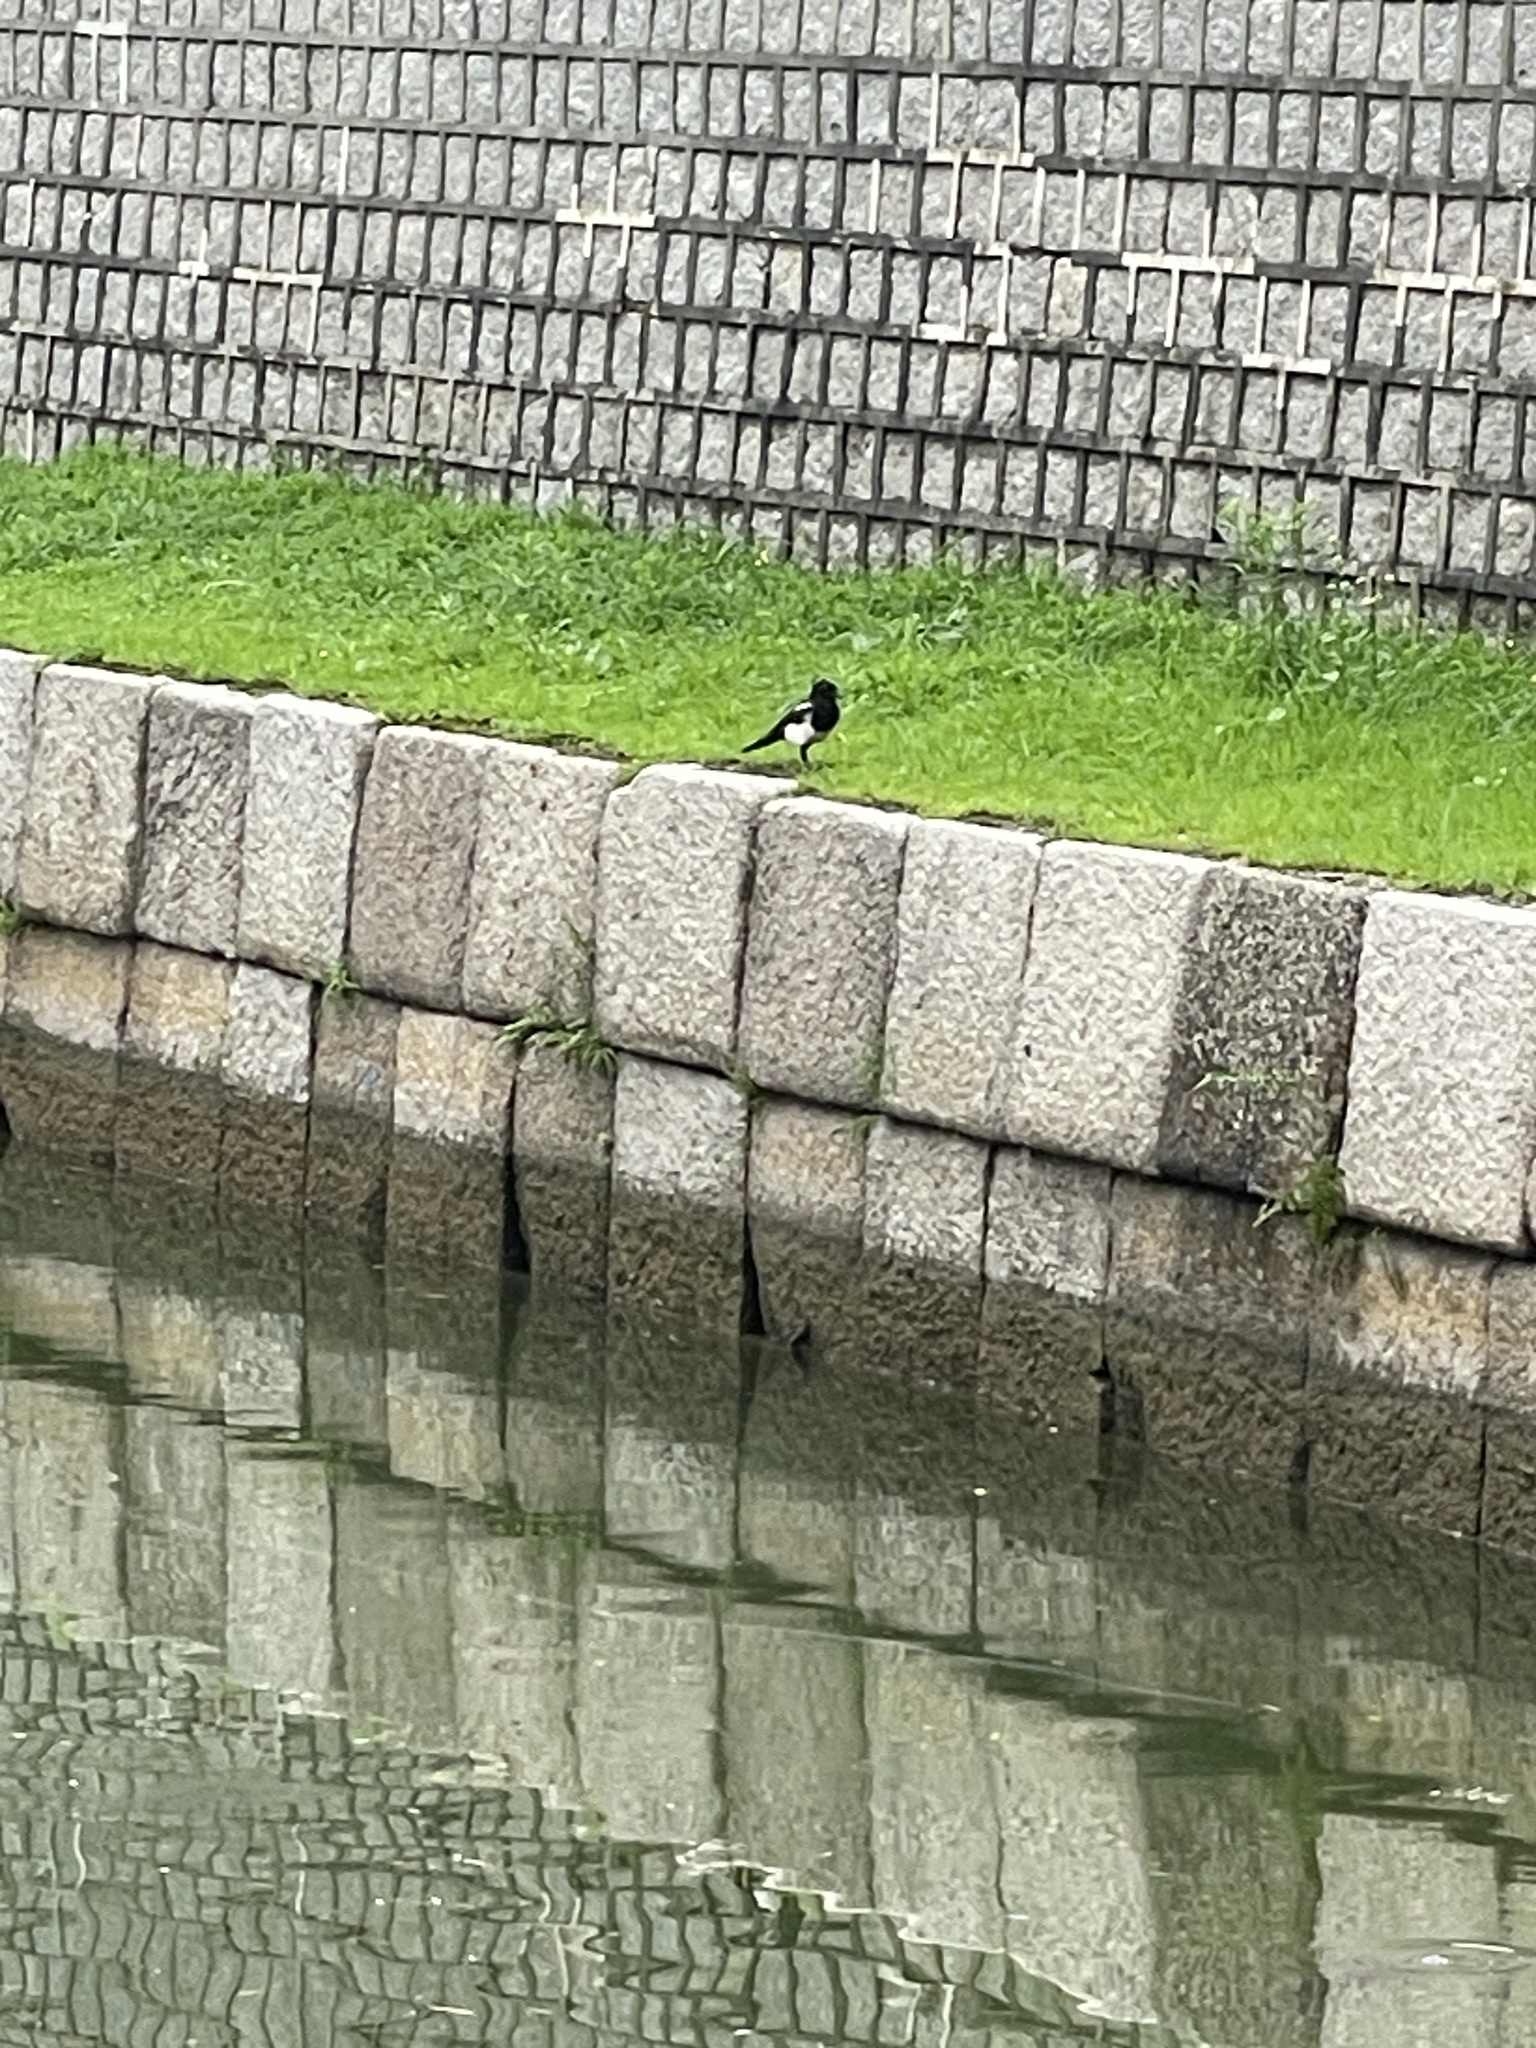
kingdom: Animalia
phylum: Chordata
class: Aves
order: Passeriformes
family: Corvidae
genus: Pica
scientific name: Pica serica
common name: Oriental magpie
